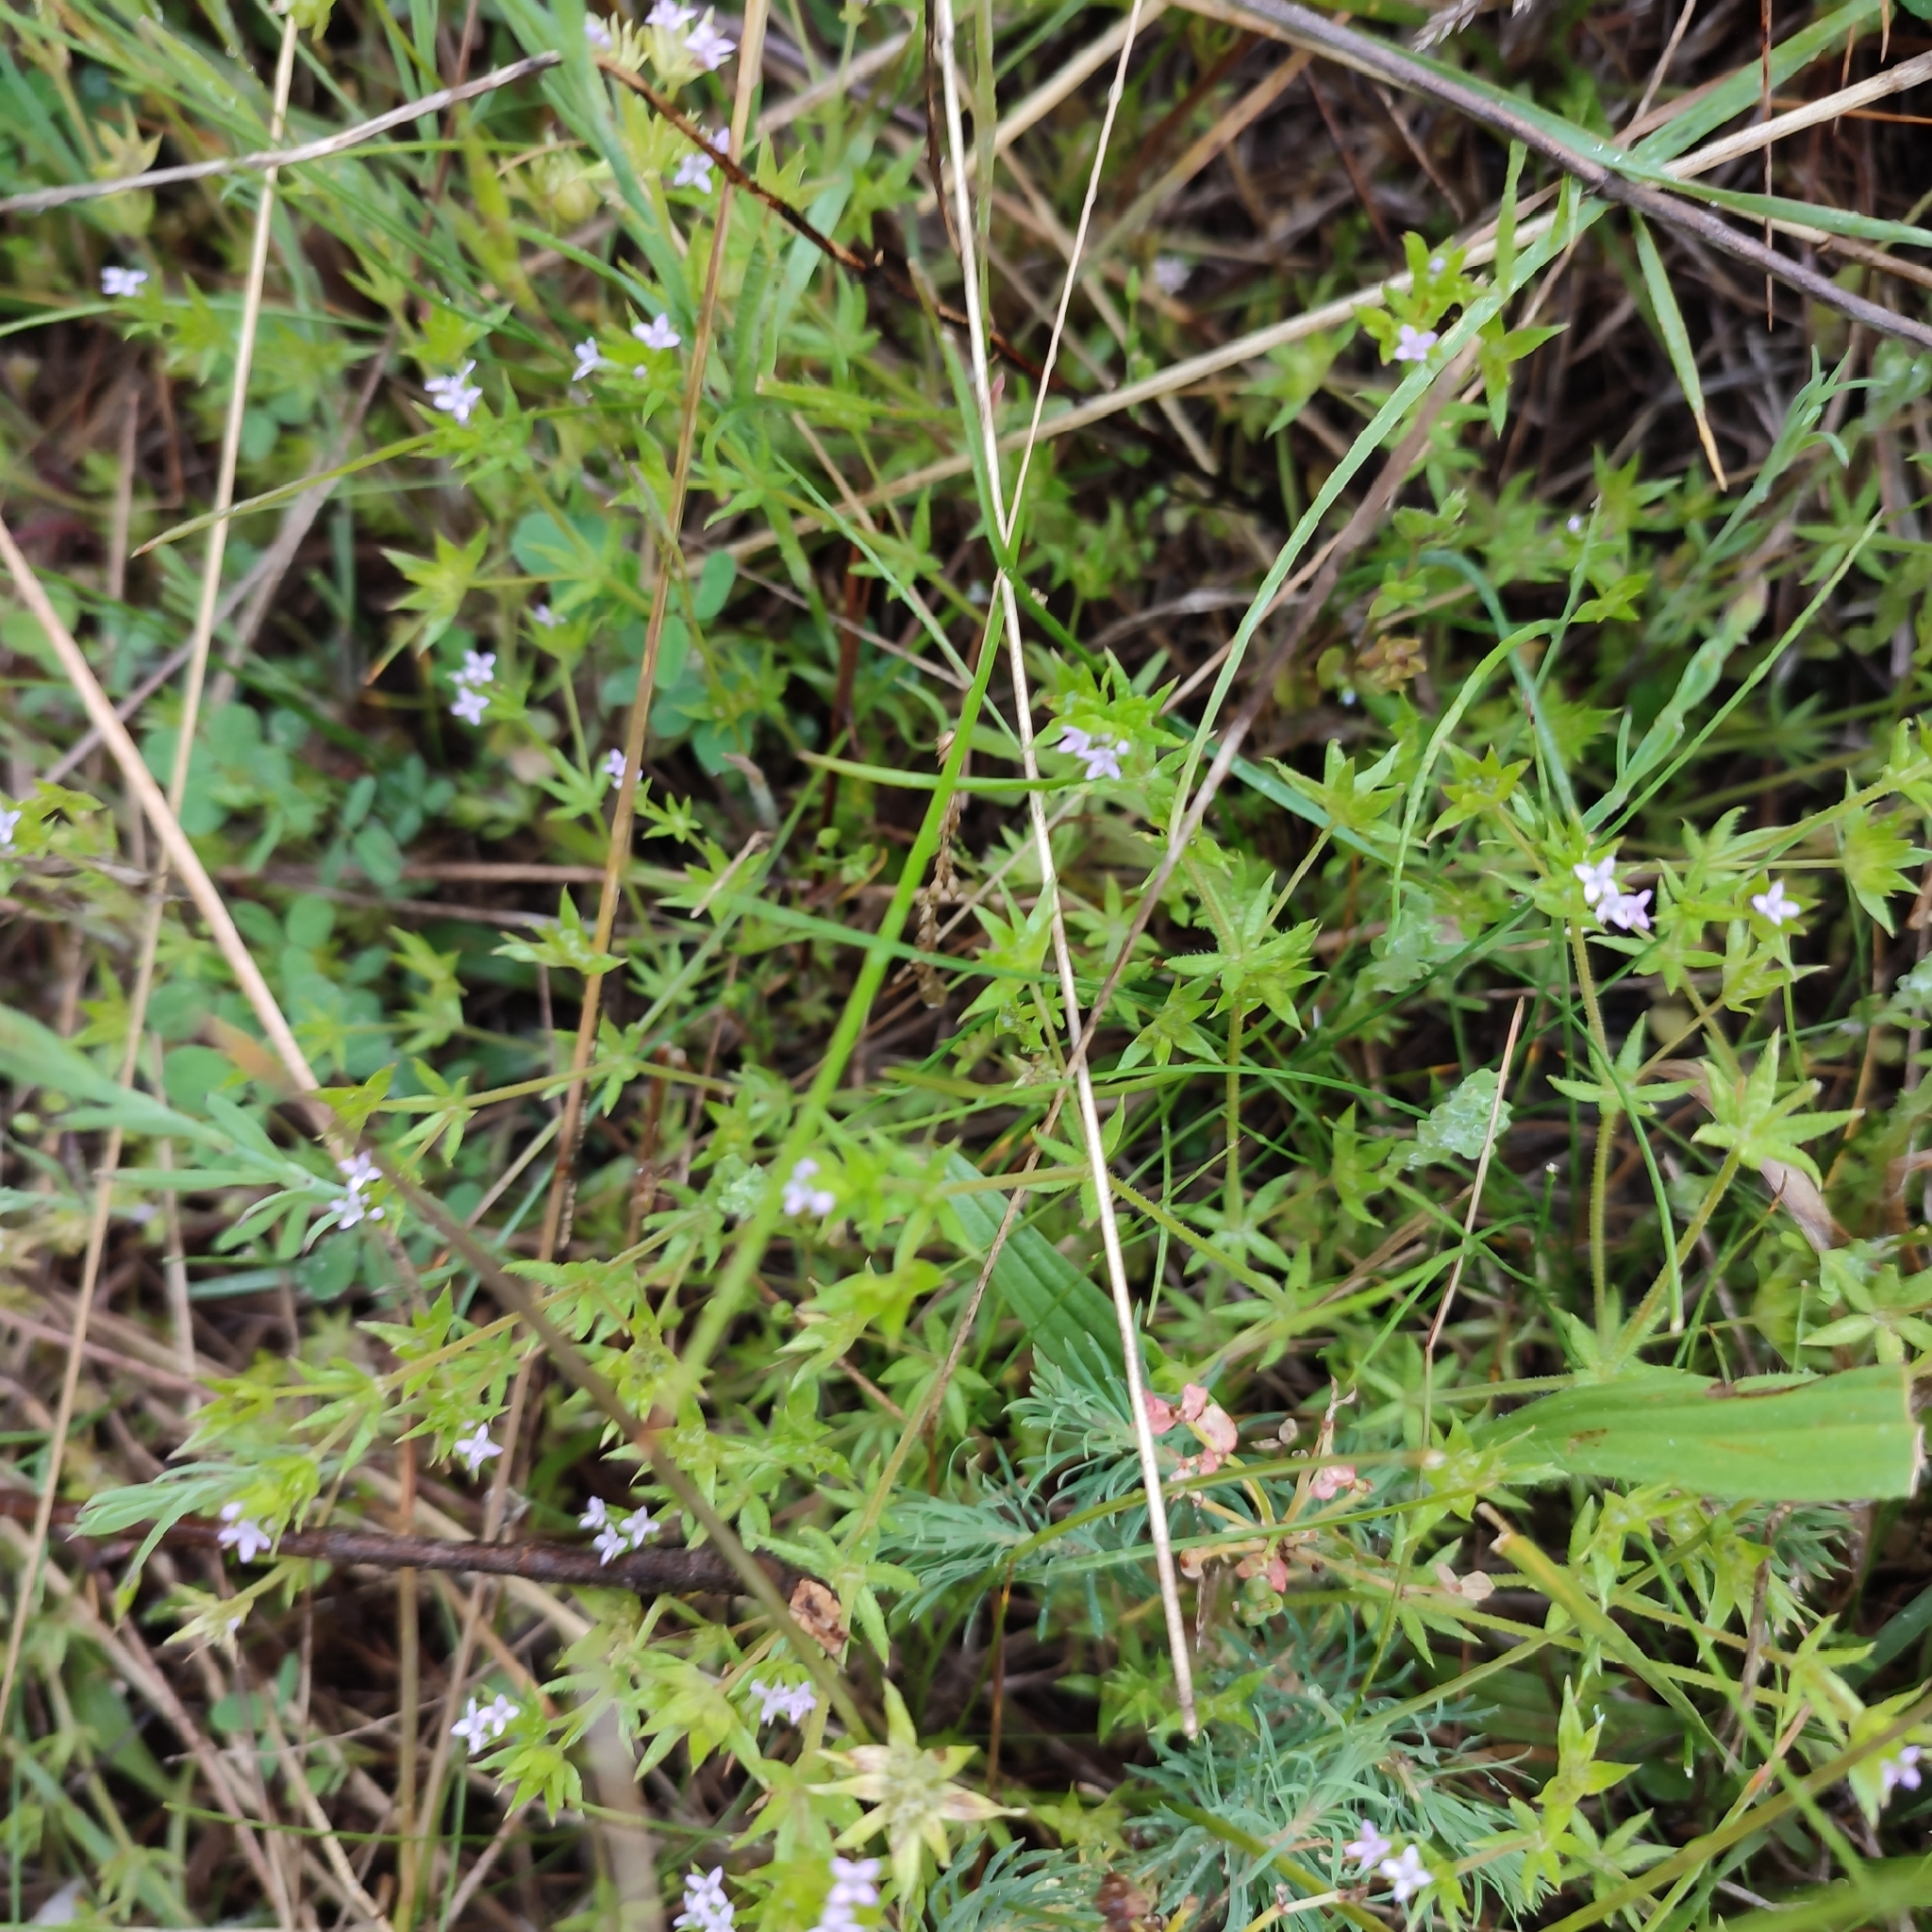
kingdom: Plantae
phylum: Tracheophyta
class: Magnoliopsida
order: Gentianales
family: Rubiaceae
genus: Sherardia
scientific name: Sherardia arvensis
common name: Field madder
